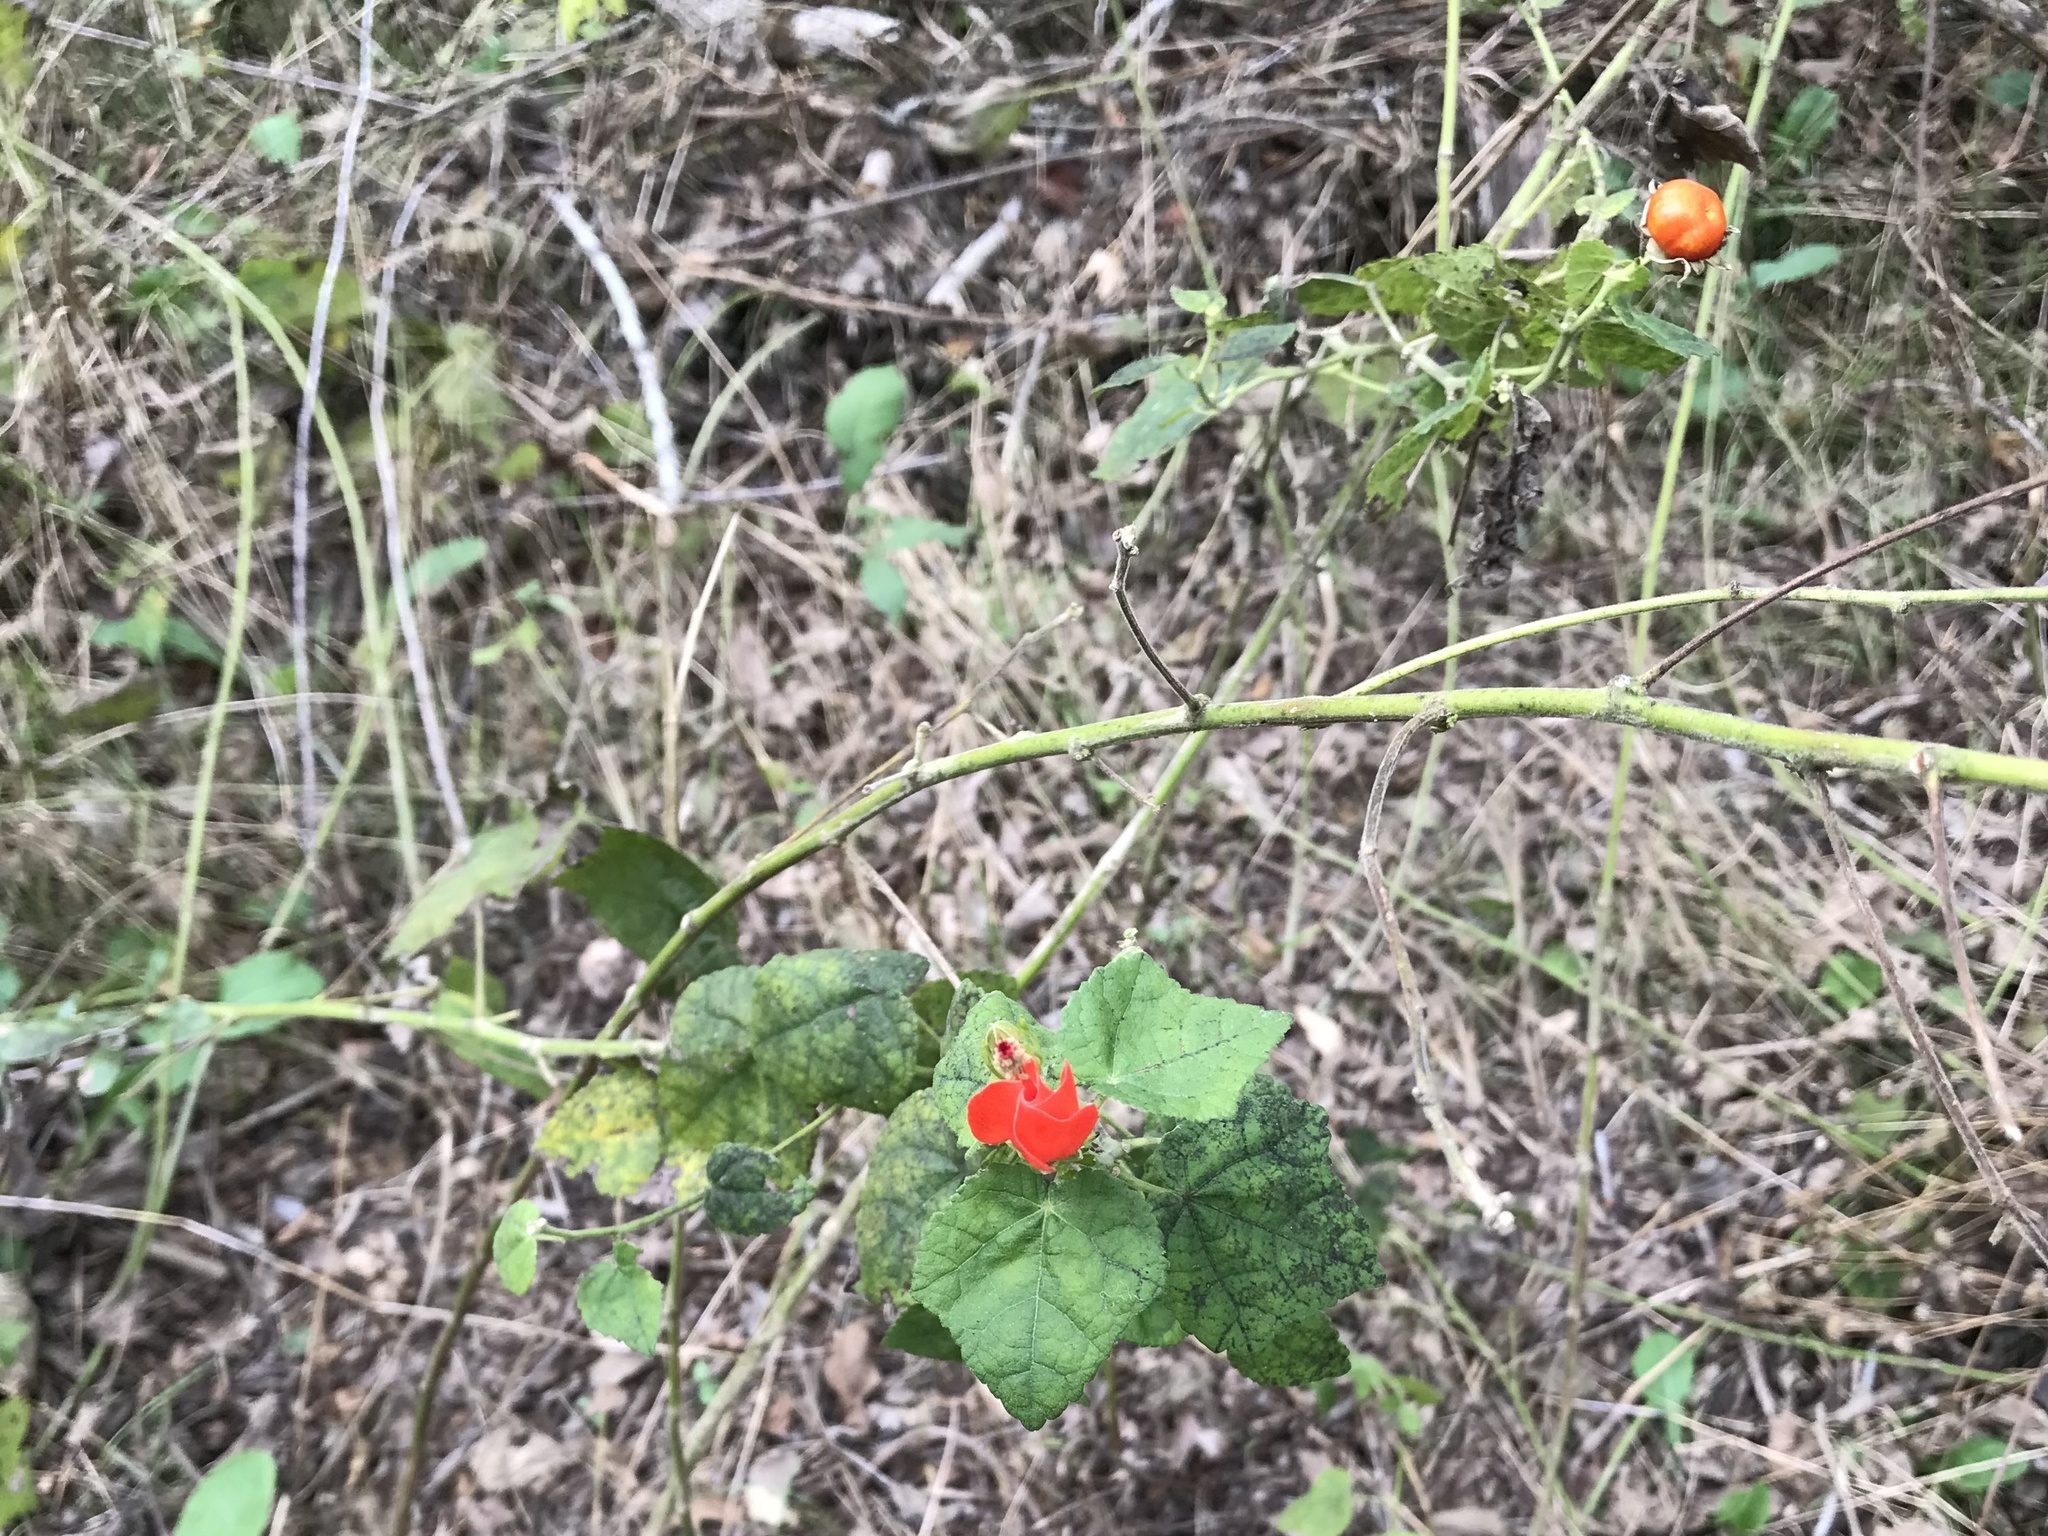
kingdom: Plantae
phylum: Tracheophyta
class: Magnoliopsida
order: Malvales
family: Malvaceae
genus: Malvaviscus
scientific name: Malvaviscus arboreus
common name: Wax mallow
